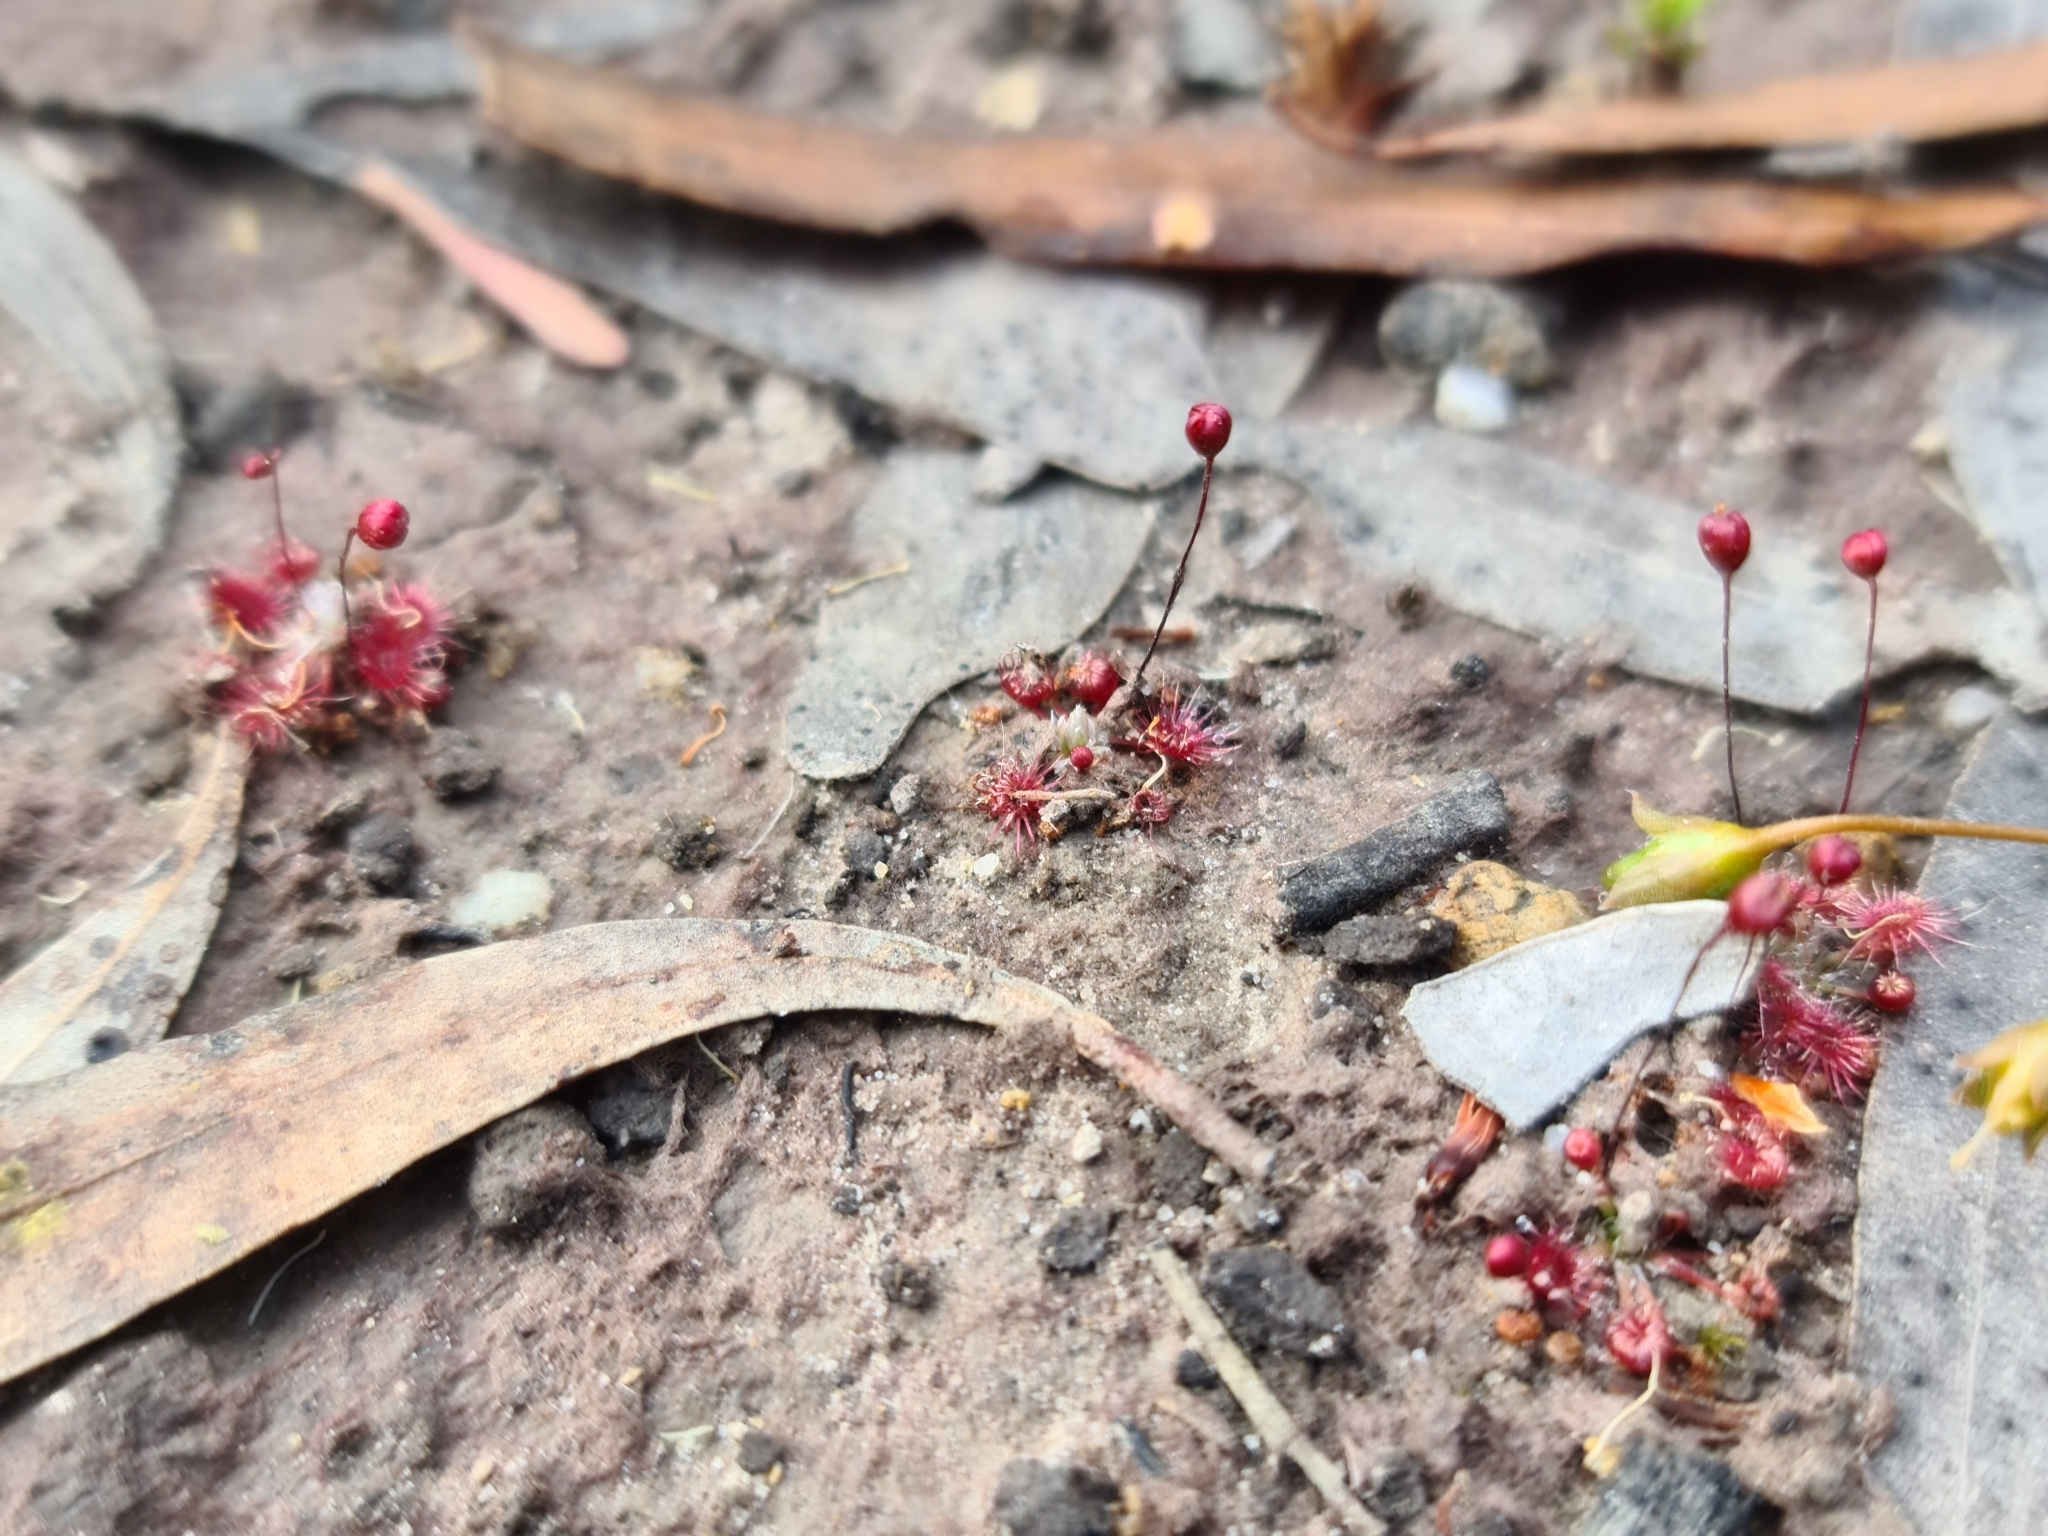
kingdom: Plantae
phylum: Tracheophyta
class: Magnoliopsida
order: Caryophyllales
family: Droseraceae
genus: Drosera
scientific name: Drosera pygmaea
